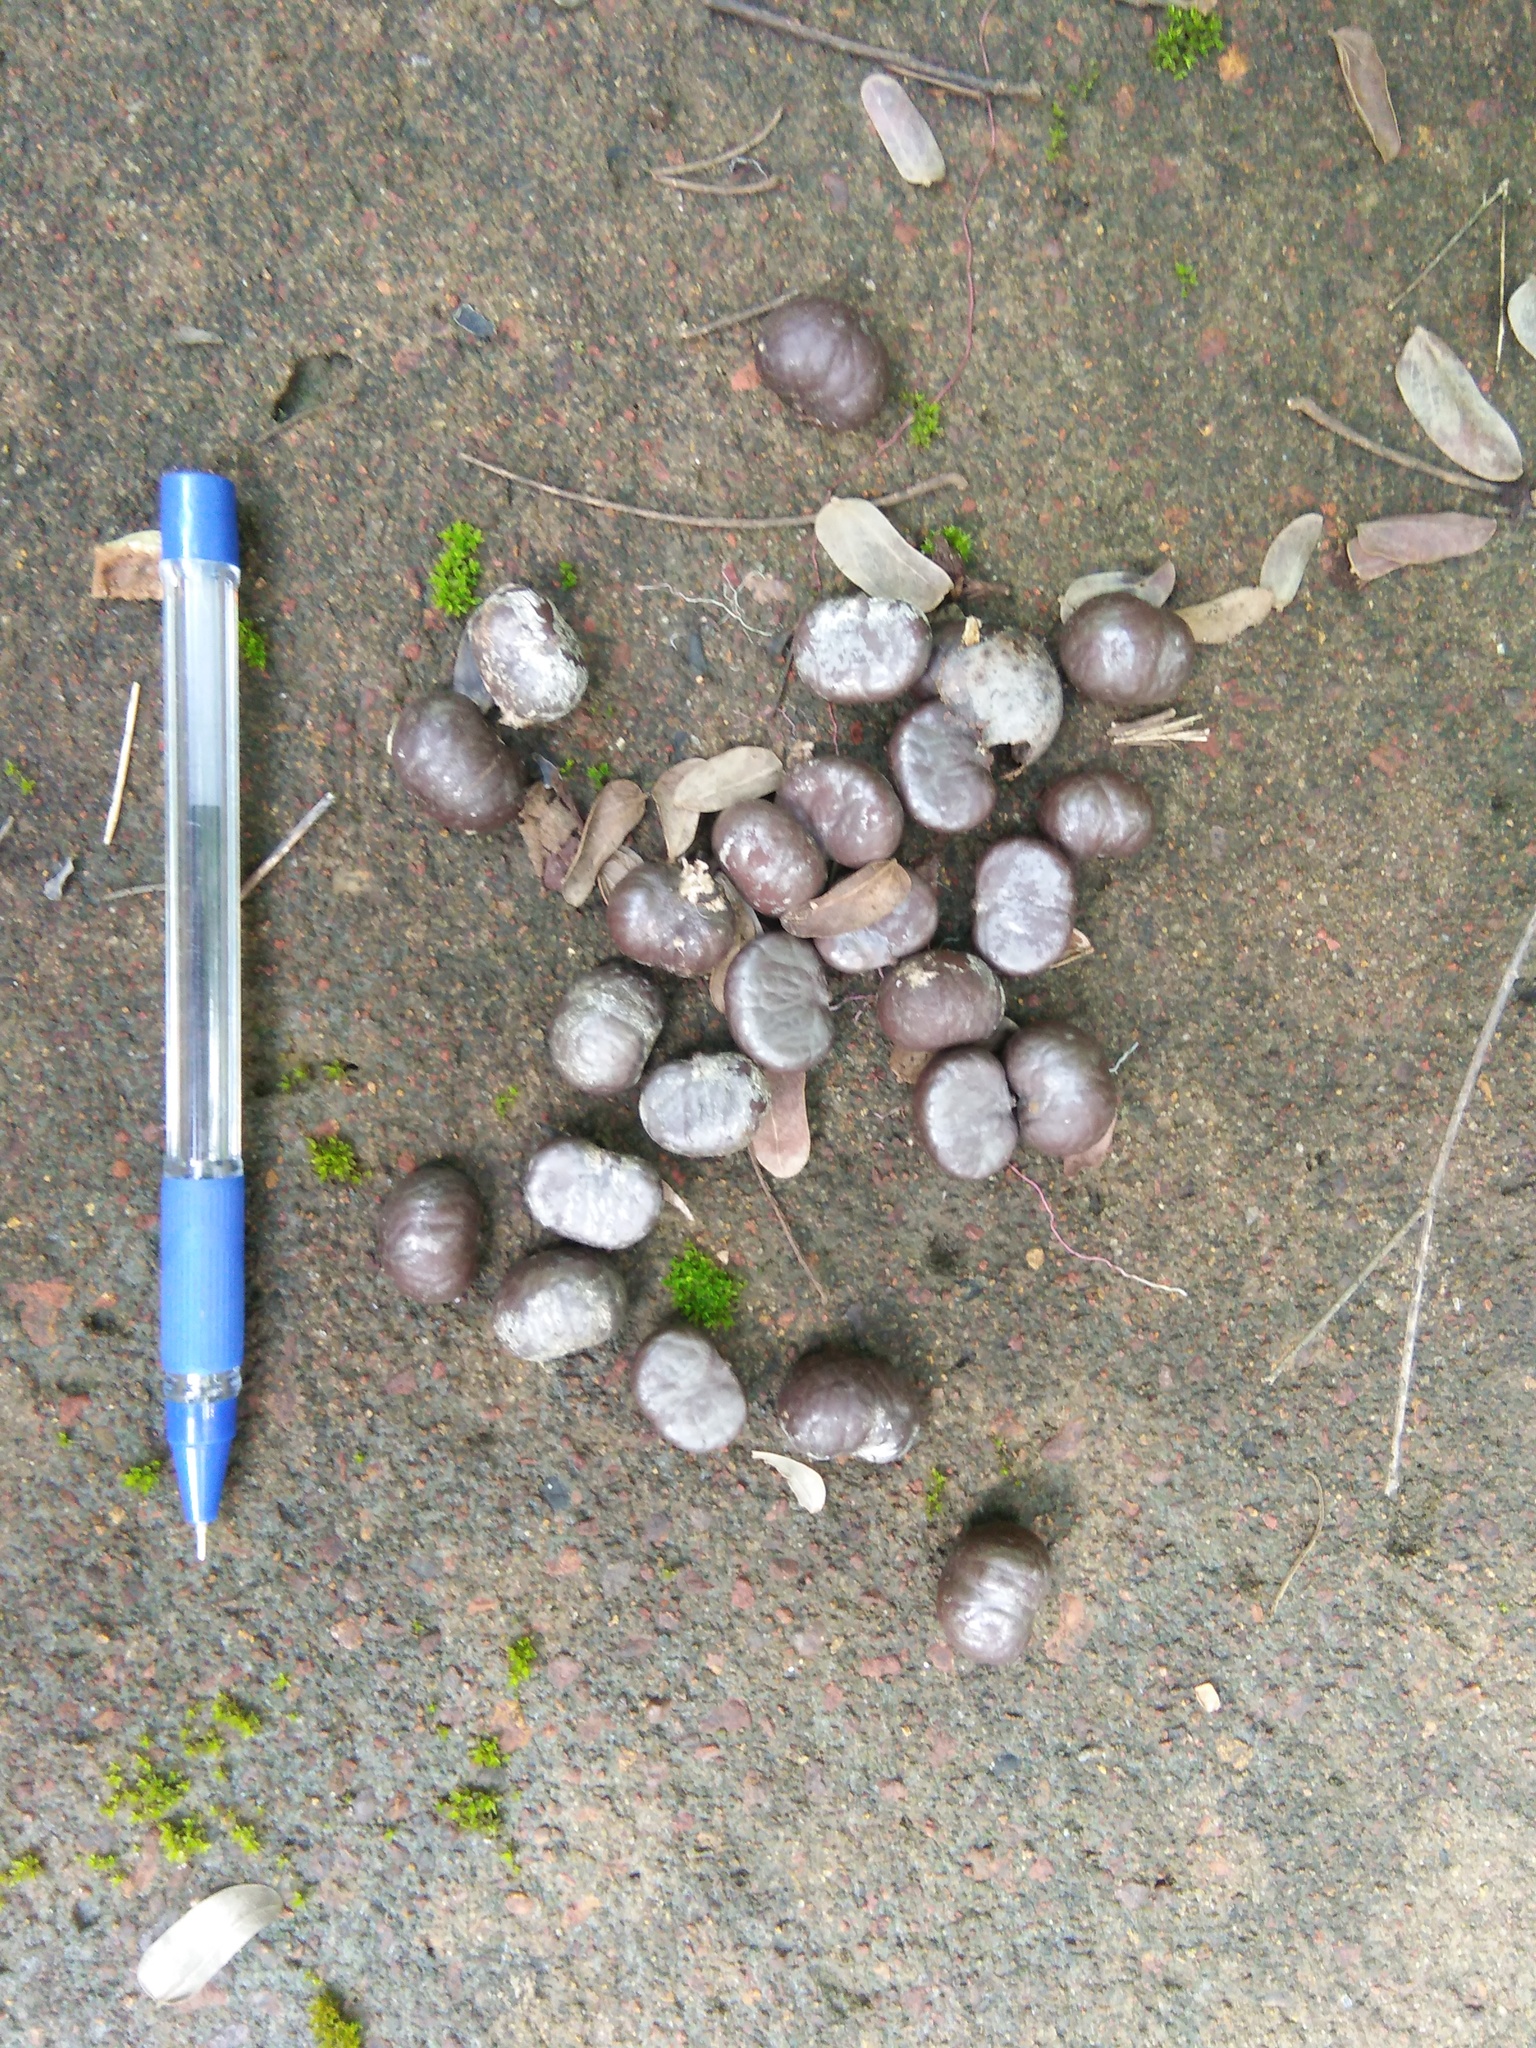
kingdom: Animalia
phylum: Chordata
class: Mammalia
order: Carnivora
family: Viverridae
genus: Paradoxurus
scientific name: Paradoxurus hermaphroditus
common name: Common palm civet
